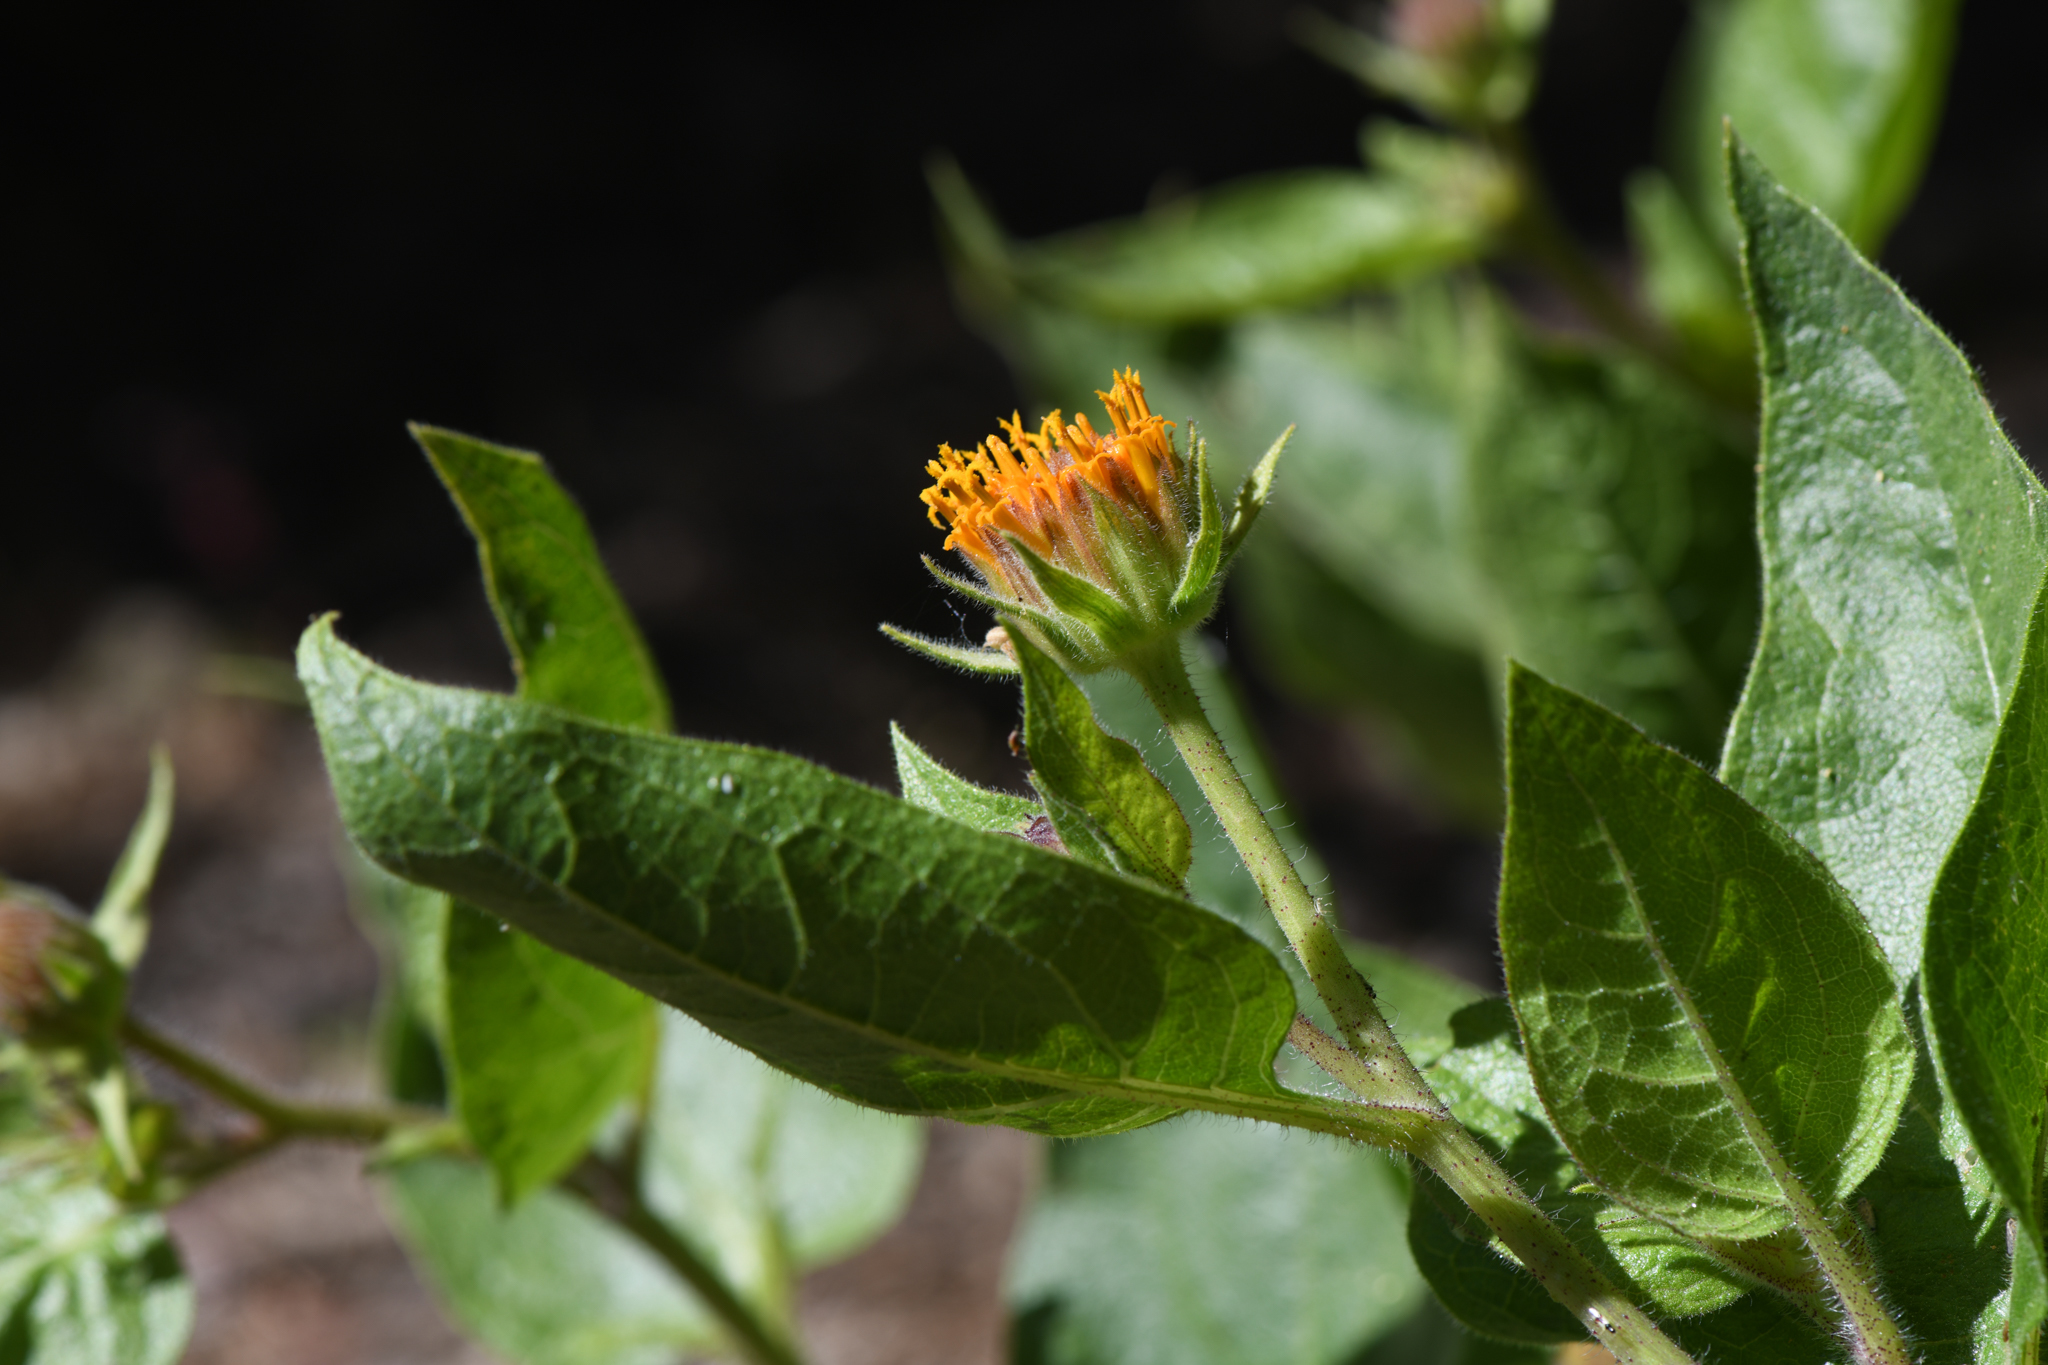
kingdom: Plantae
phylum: Tracheophyta
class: Magnoliopsida
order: Asterales
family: Asteraceae
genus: Agnorhiza
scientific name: Agnorhiza invenusta
